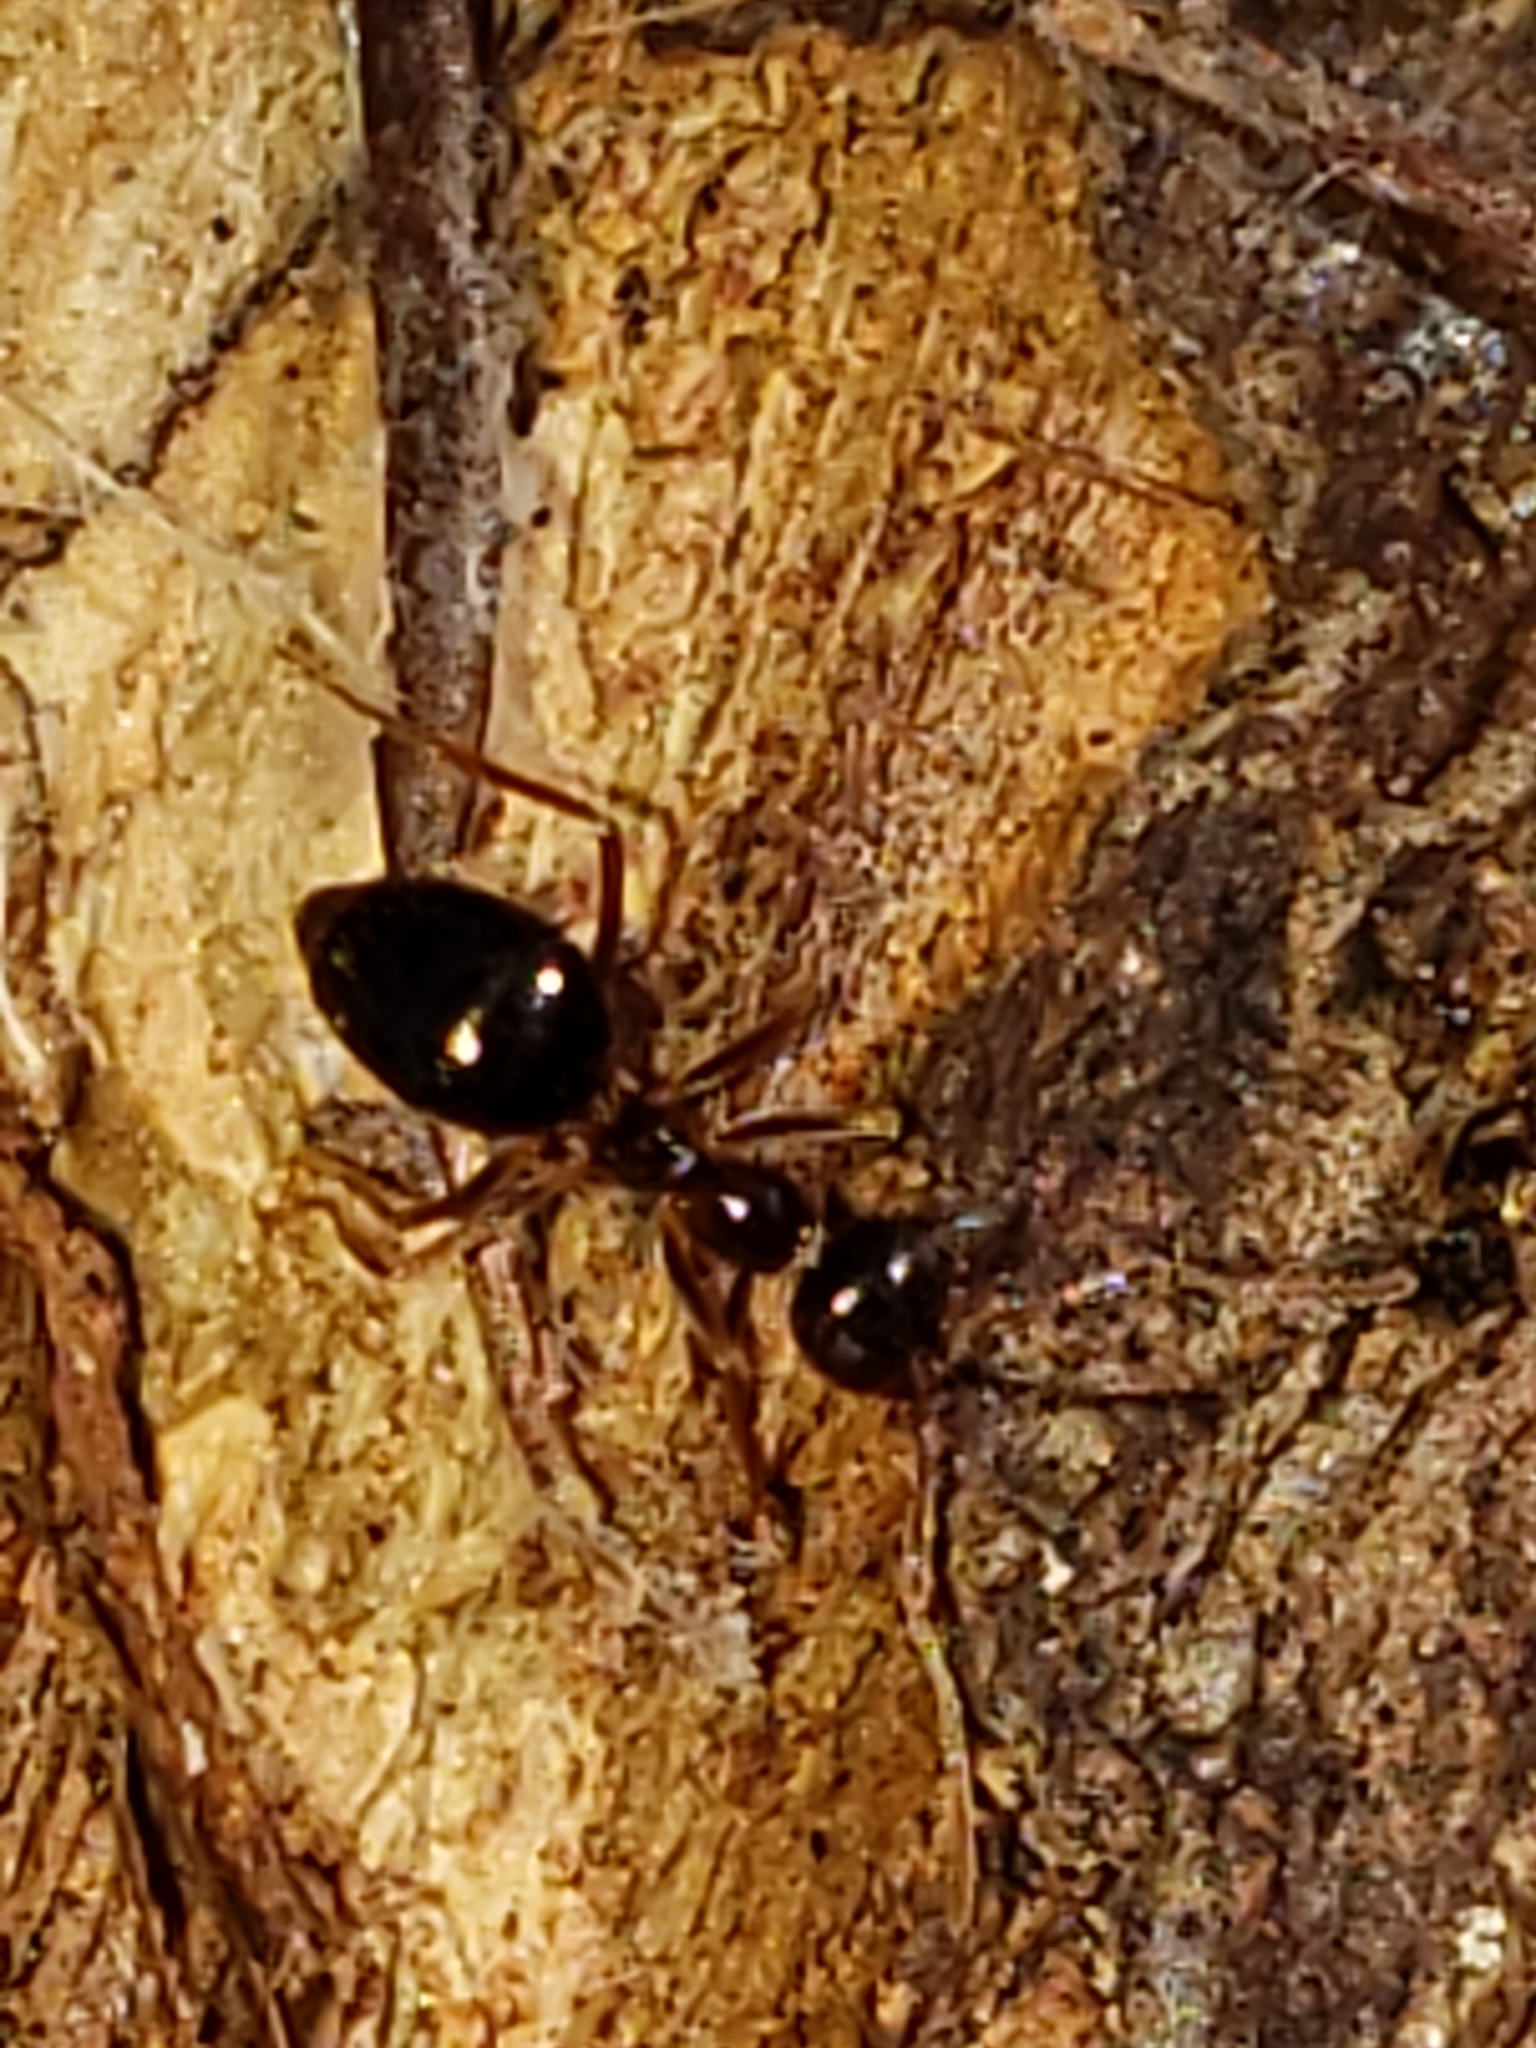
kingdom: Animalia
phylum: Arthropoda
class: Insecta
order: Hymenoptera
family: Formicidae
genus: Prenolepis
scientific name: Prenolepis imparis
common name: Small honey ant
